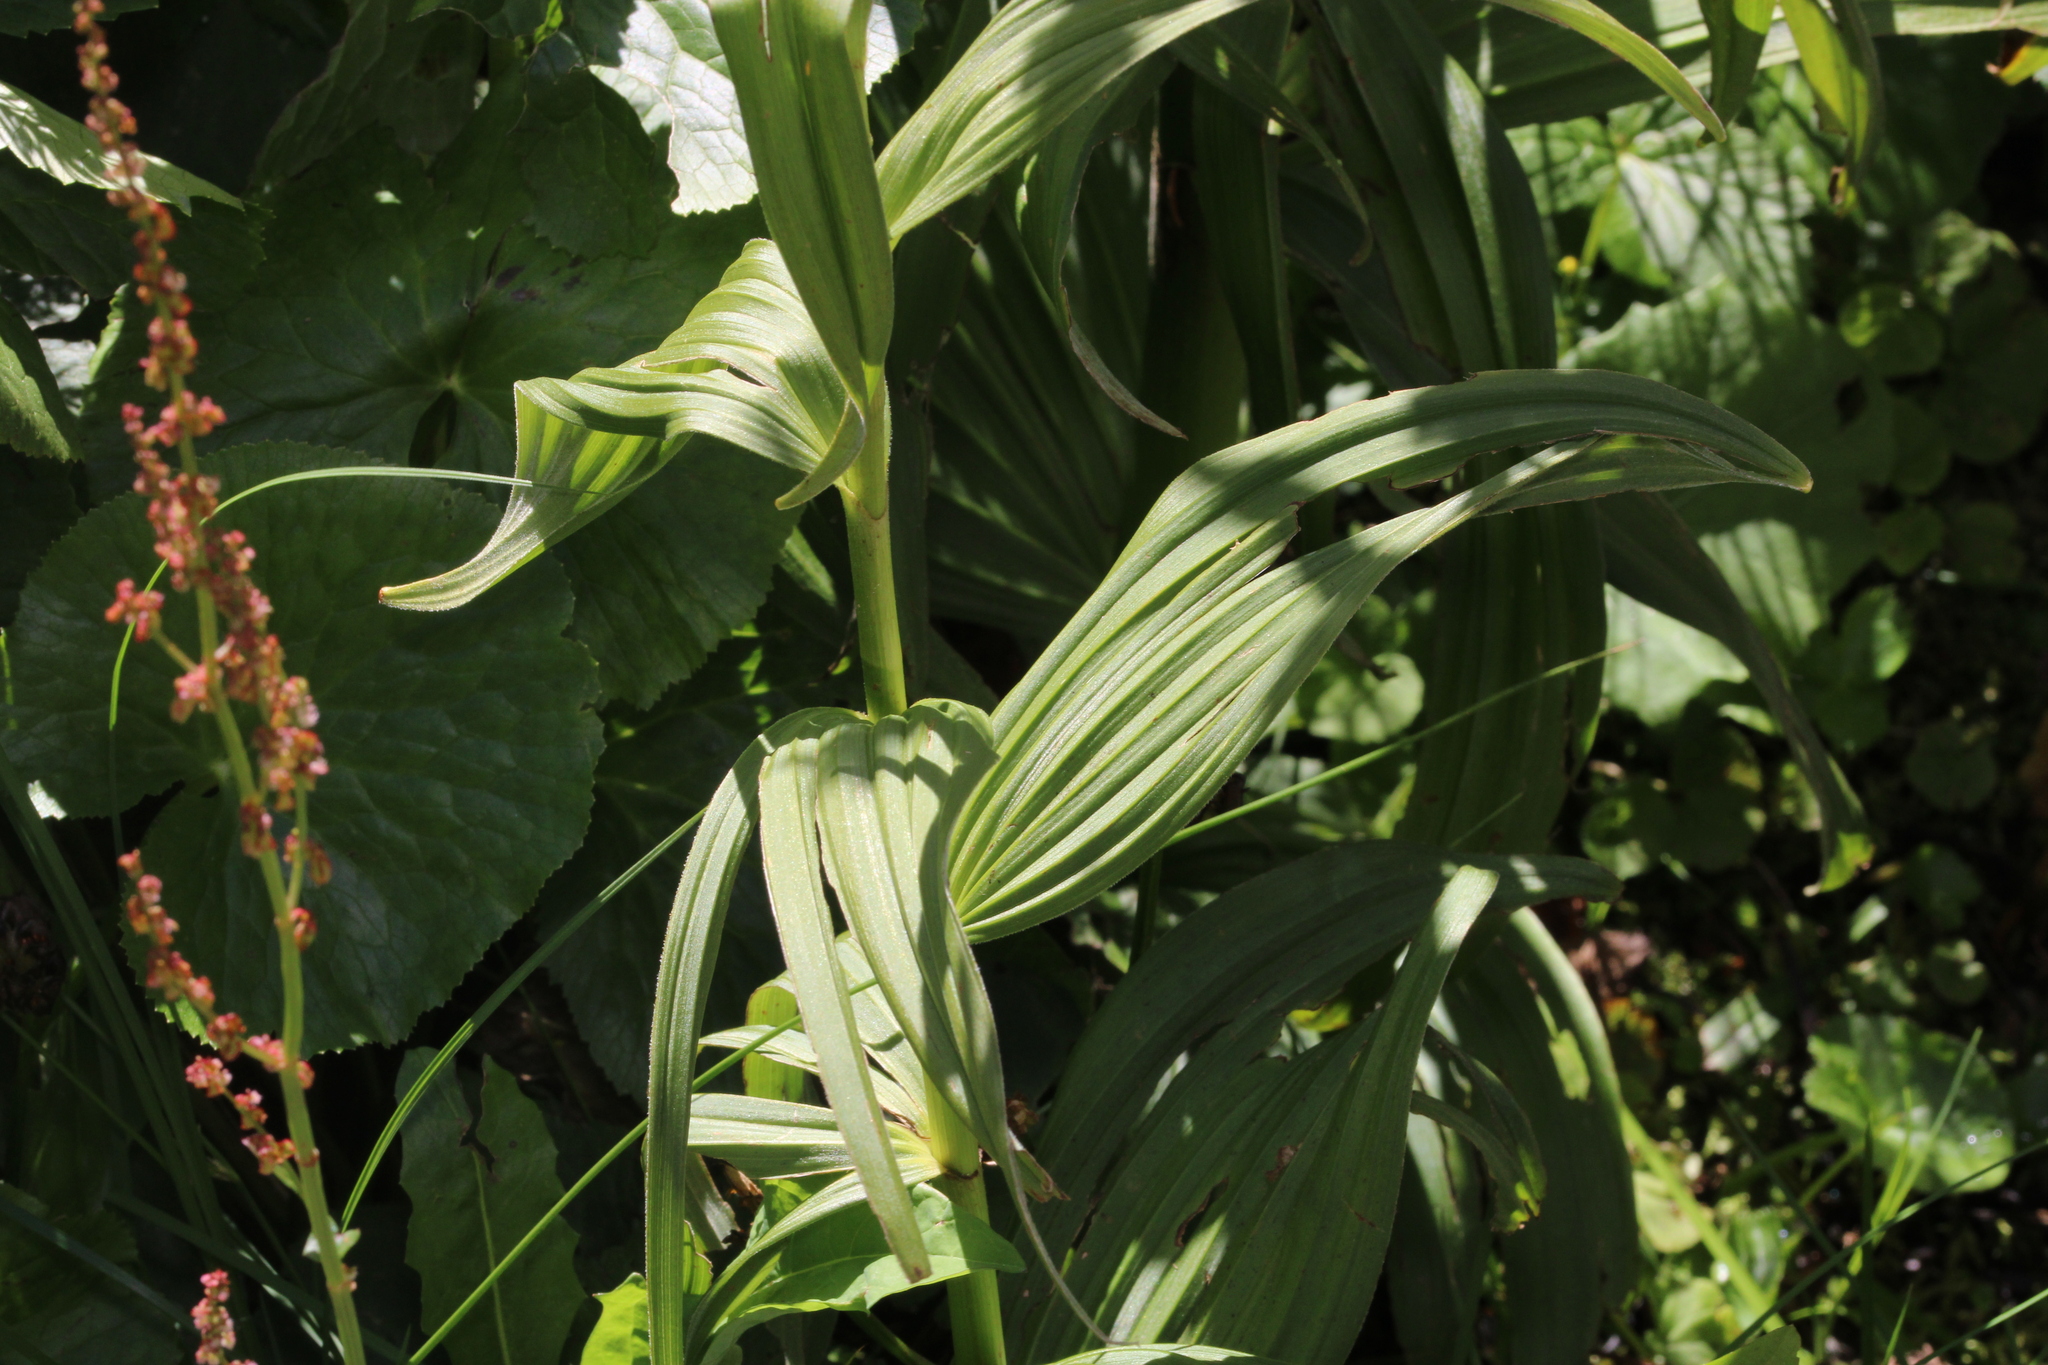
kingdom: Plantae
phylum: Tracheophyta
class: Liliopsida
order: Liliales
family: Melanthiaceae
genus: Veratrum
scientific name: Veratrum album
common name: White veratrum
